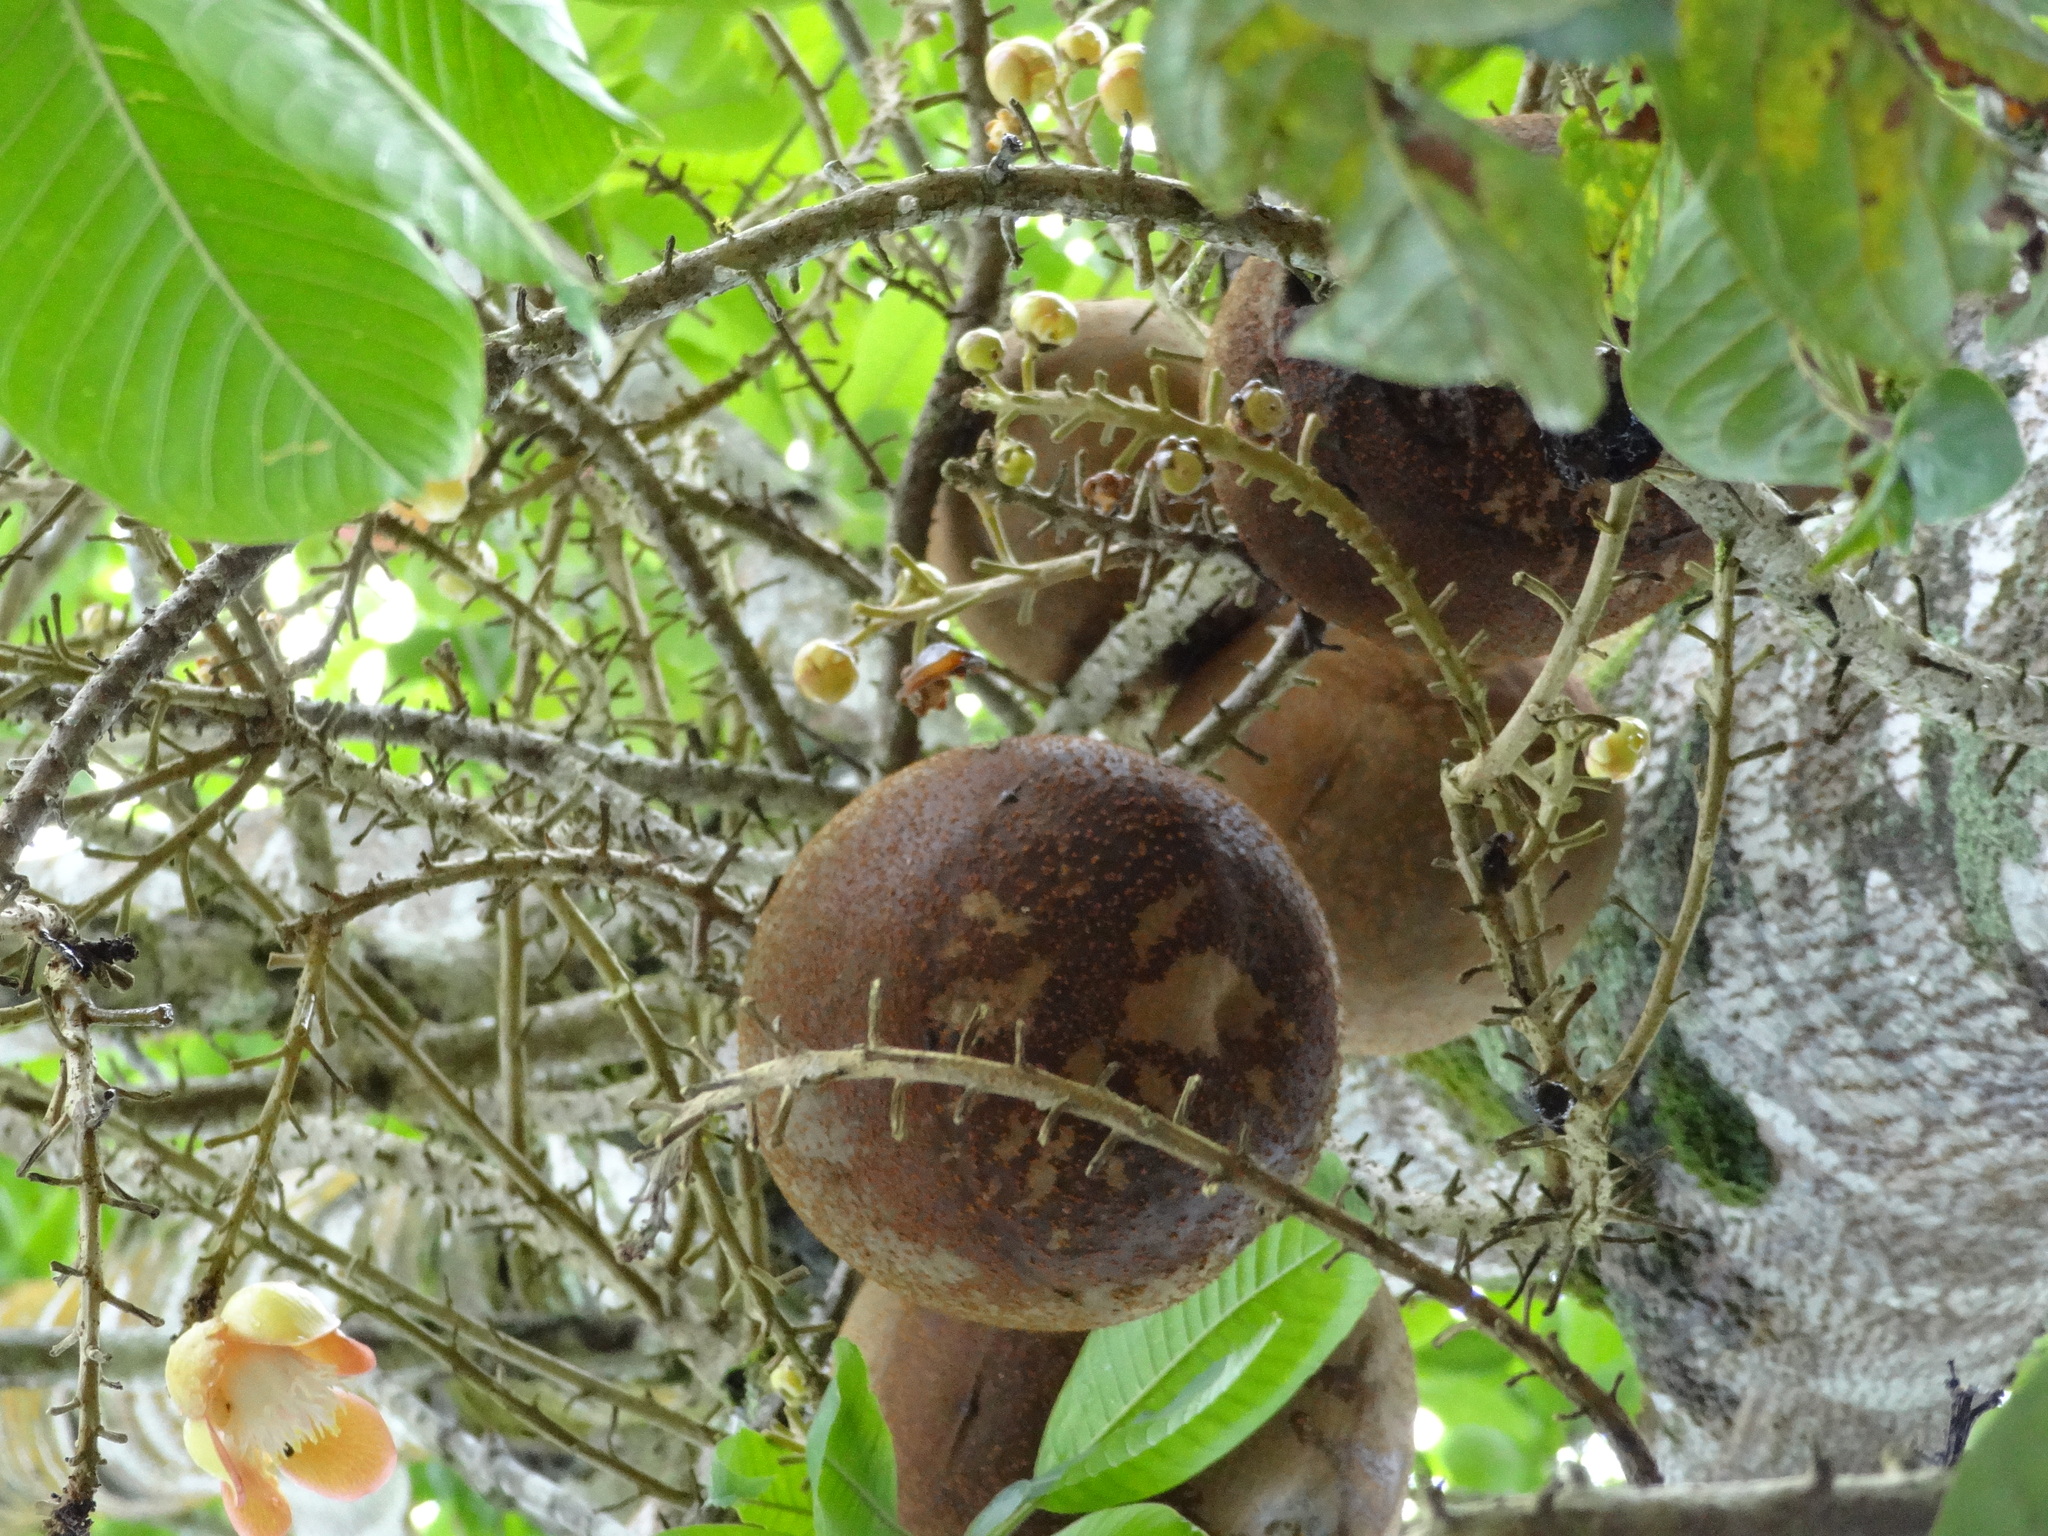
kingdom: Plantae
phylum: Tracheophyta
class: Magnoliopsida
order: Ericales
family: Lecythidaceae
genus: Couroupita
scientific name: Couroupita guianensis
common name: Cannonball tree
